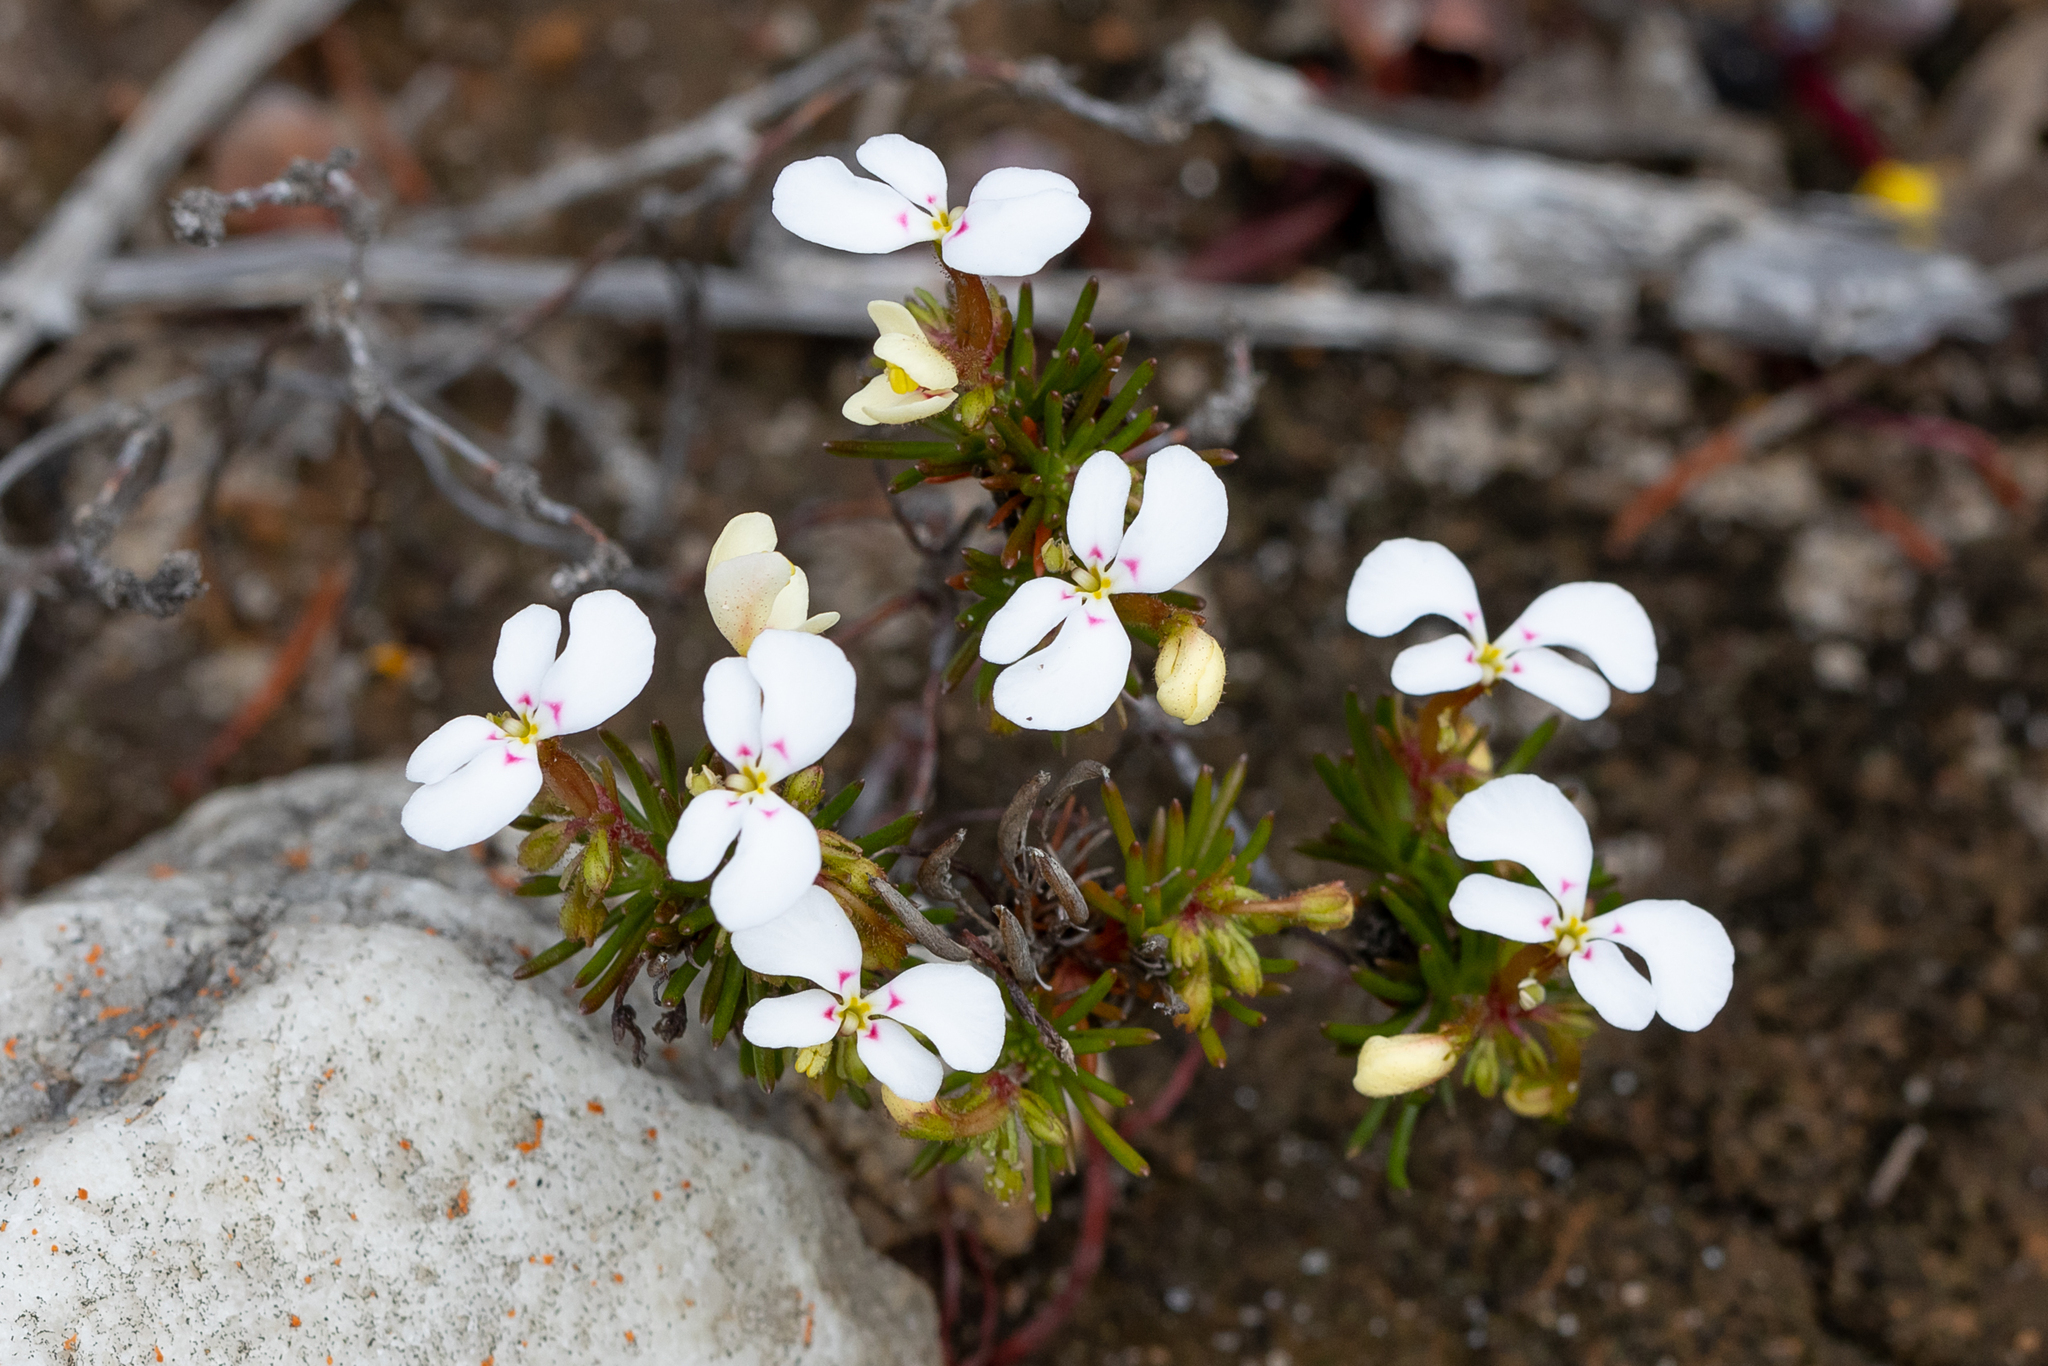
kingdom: Plantae
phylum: Tracheophyta
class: Magnoliopsida
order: Asterales
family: Stylidiaceae
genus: Stylidium
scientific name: Stylidium breviscapum
